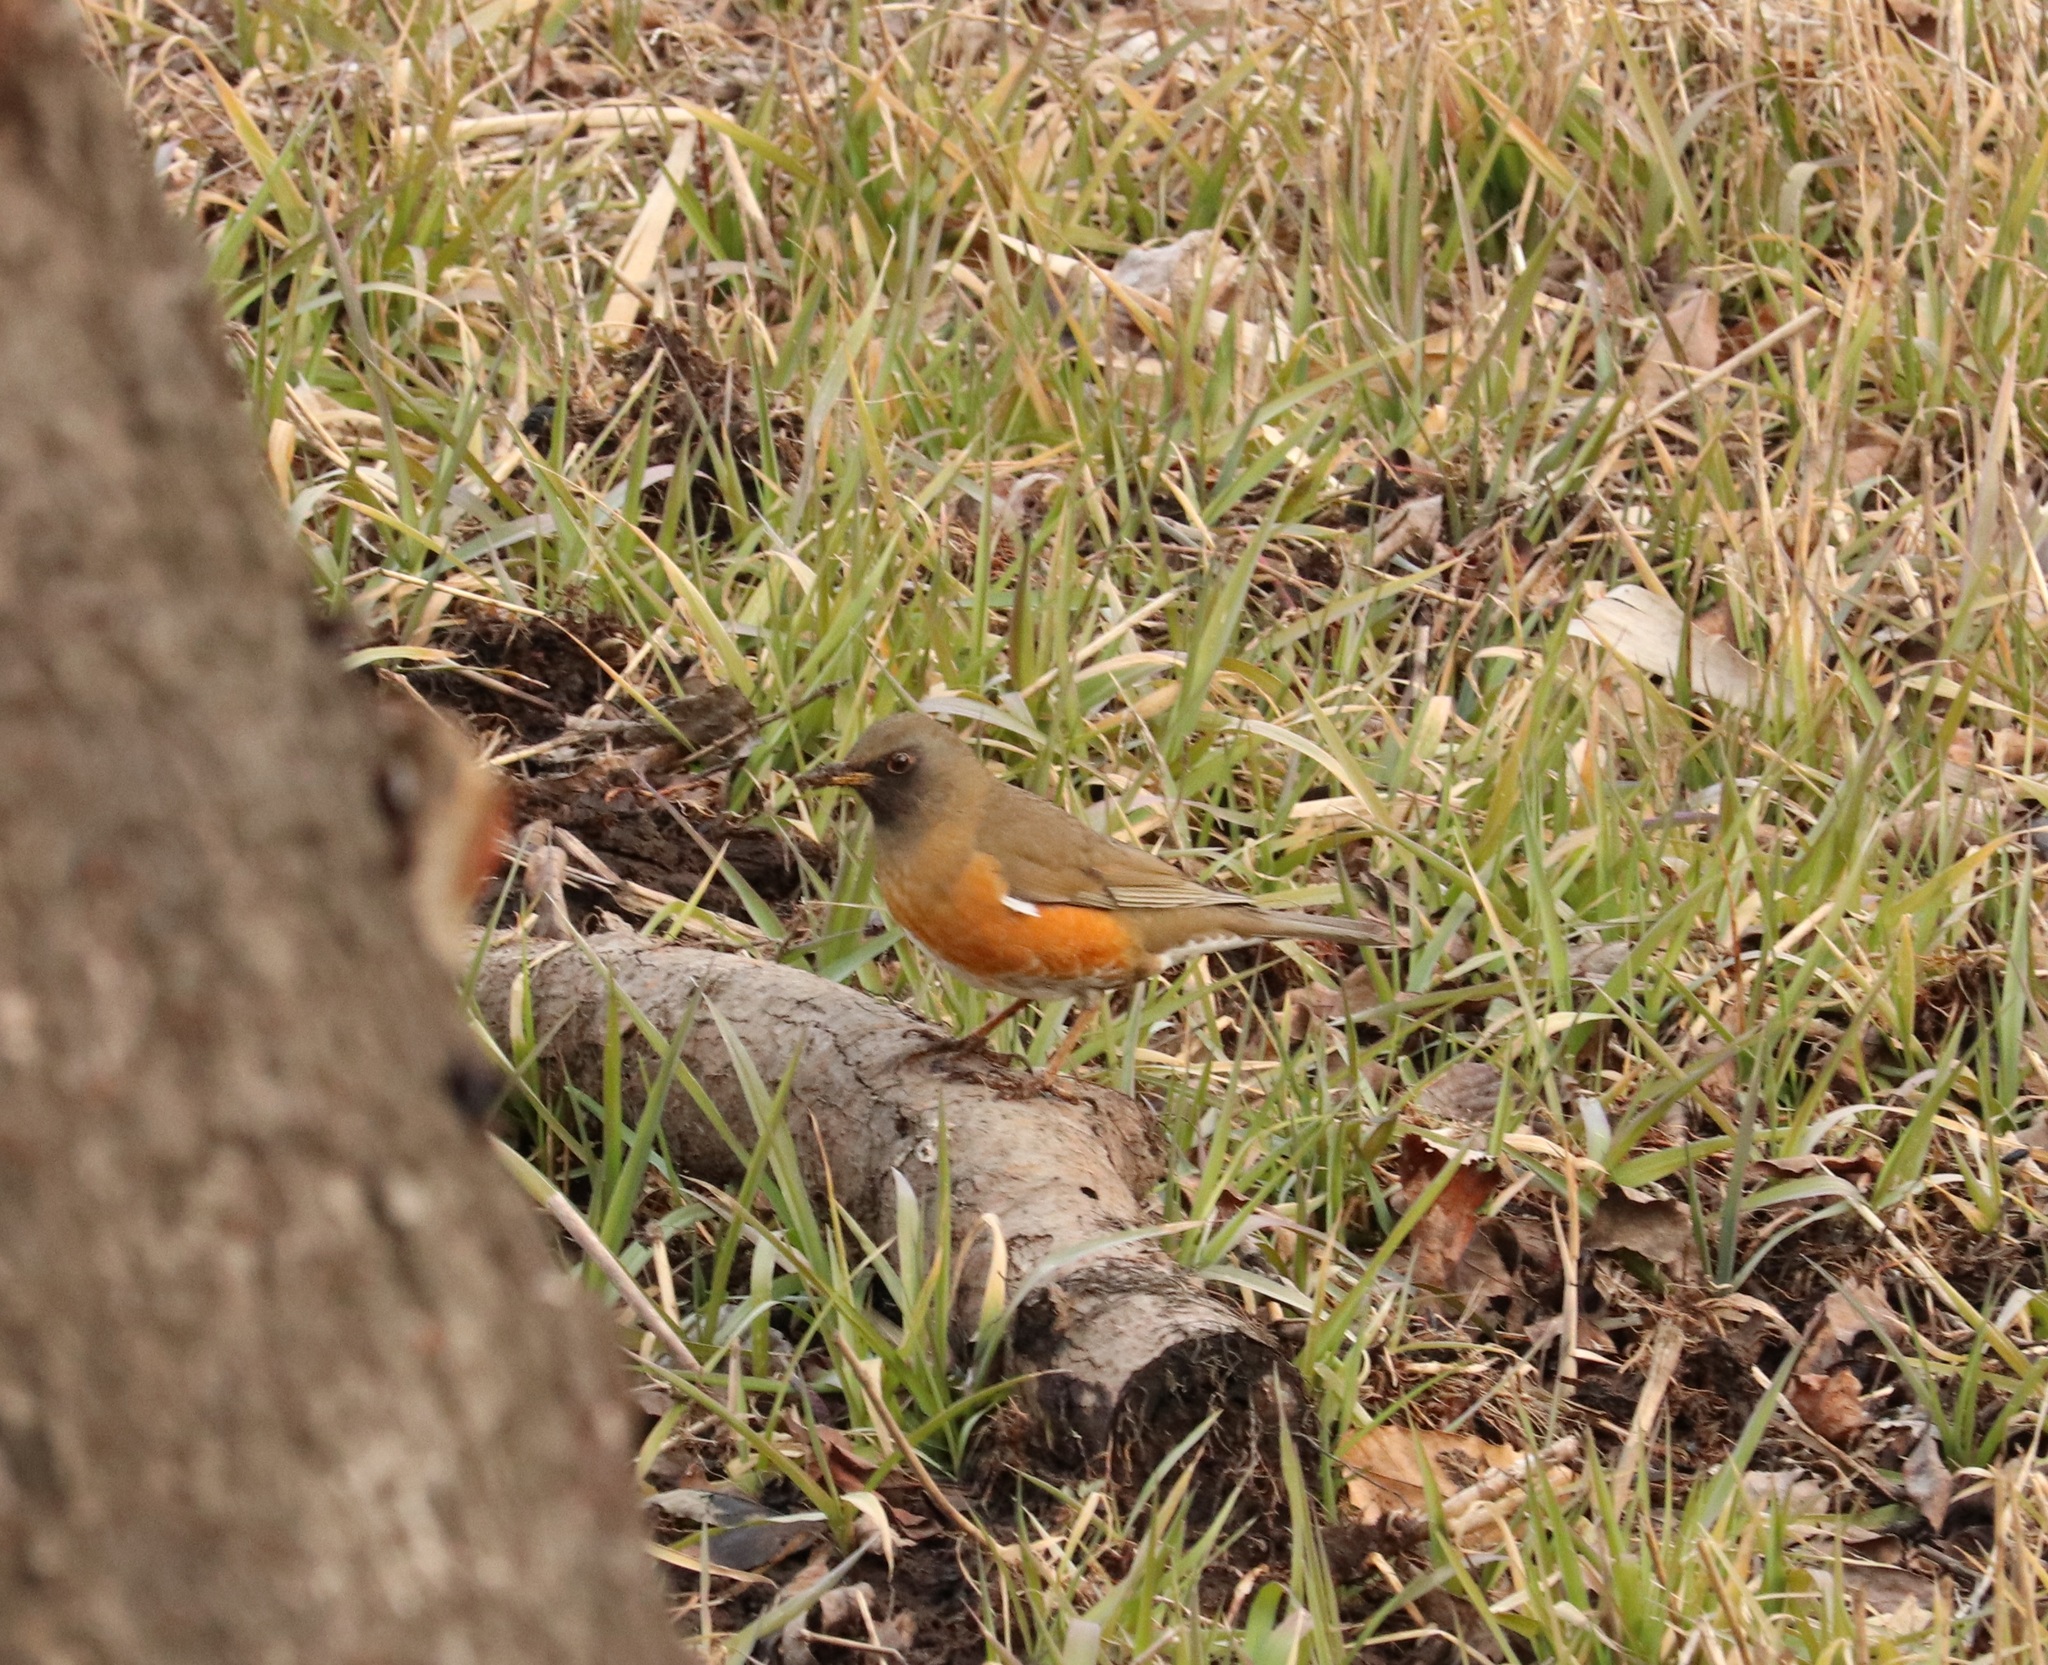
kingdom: Animalia
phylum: Chordata
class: Aves
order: Passeriformes
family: Turdidae
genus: Turdus
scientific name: Turdus chrysolaus
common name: Brown-headed thrush
